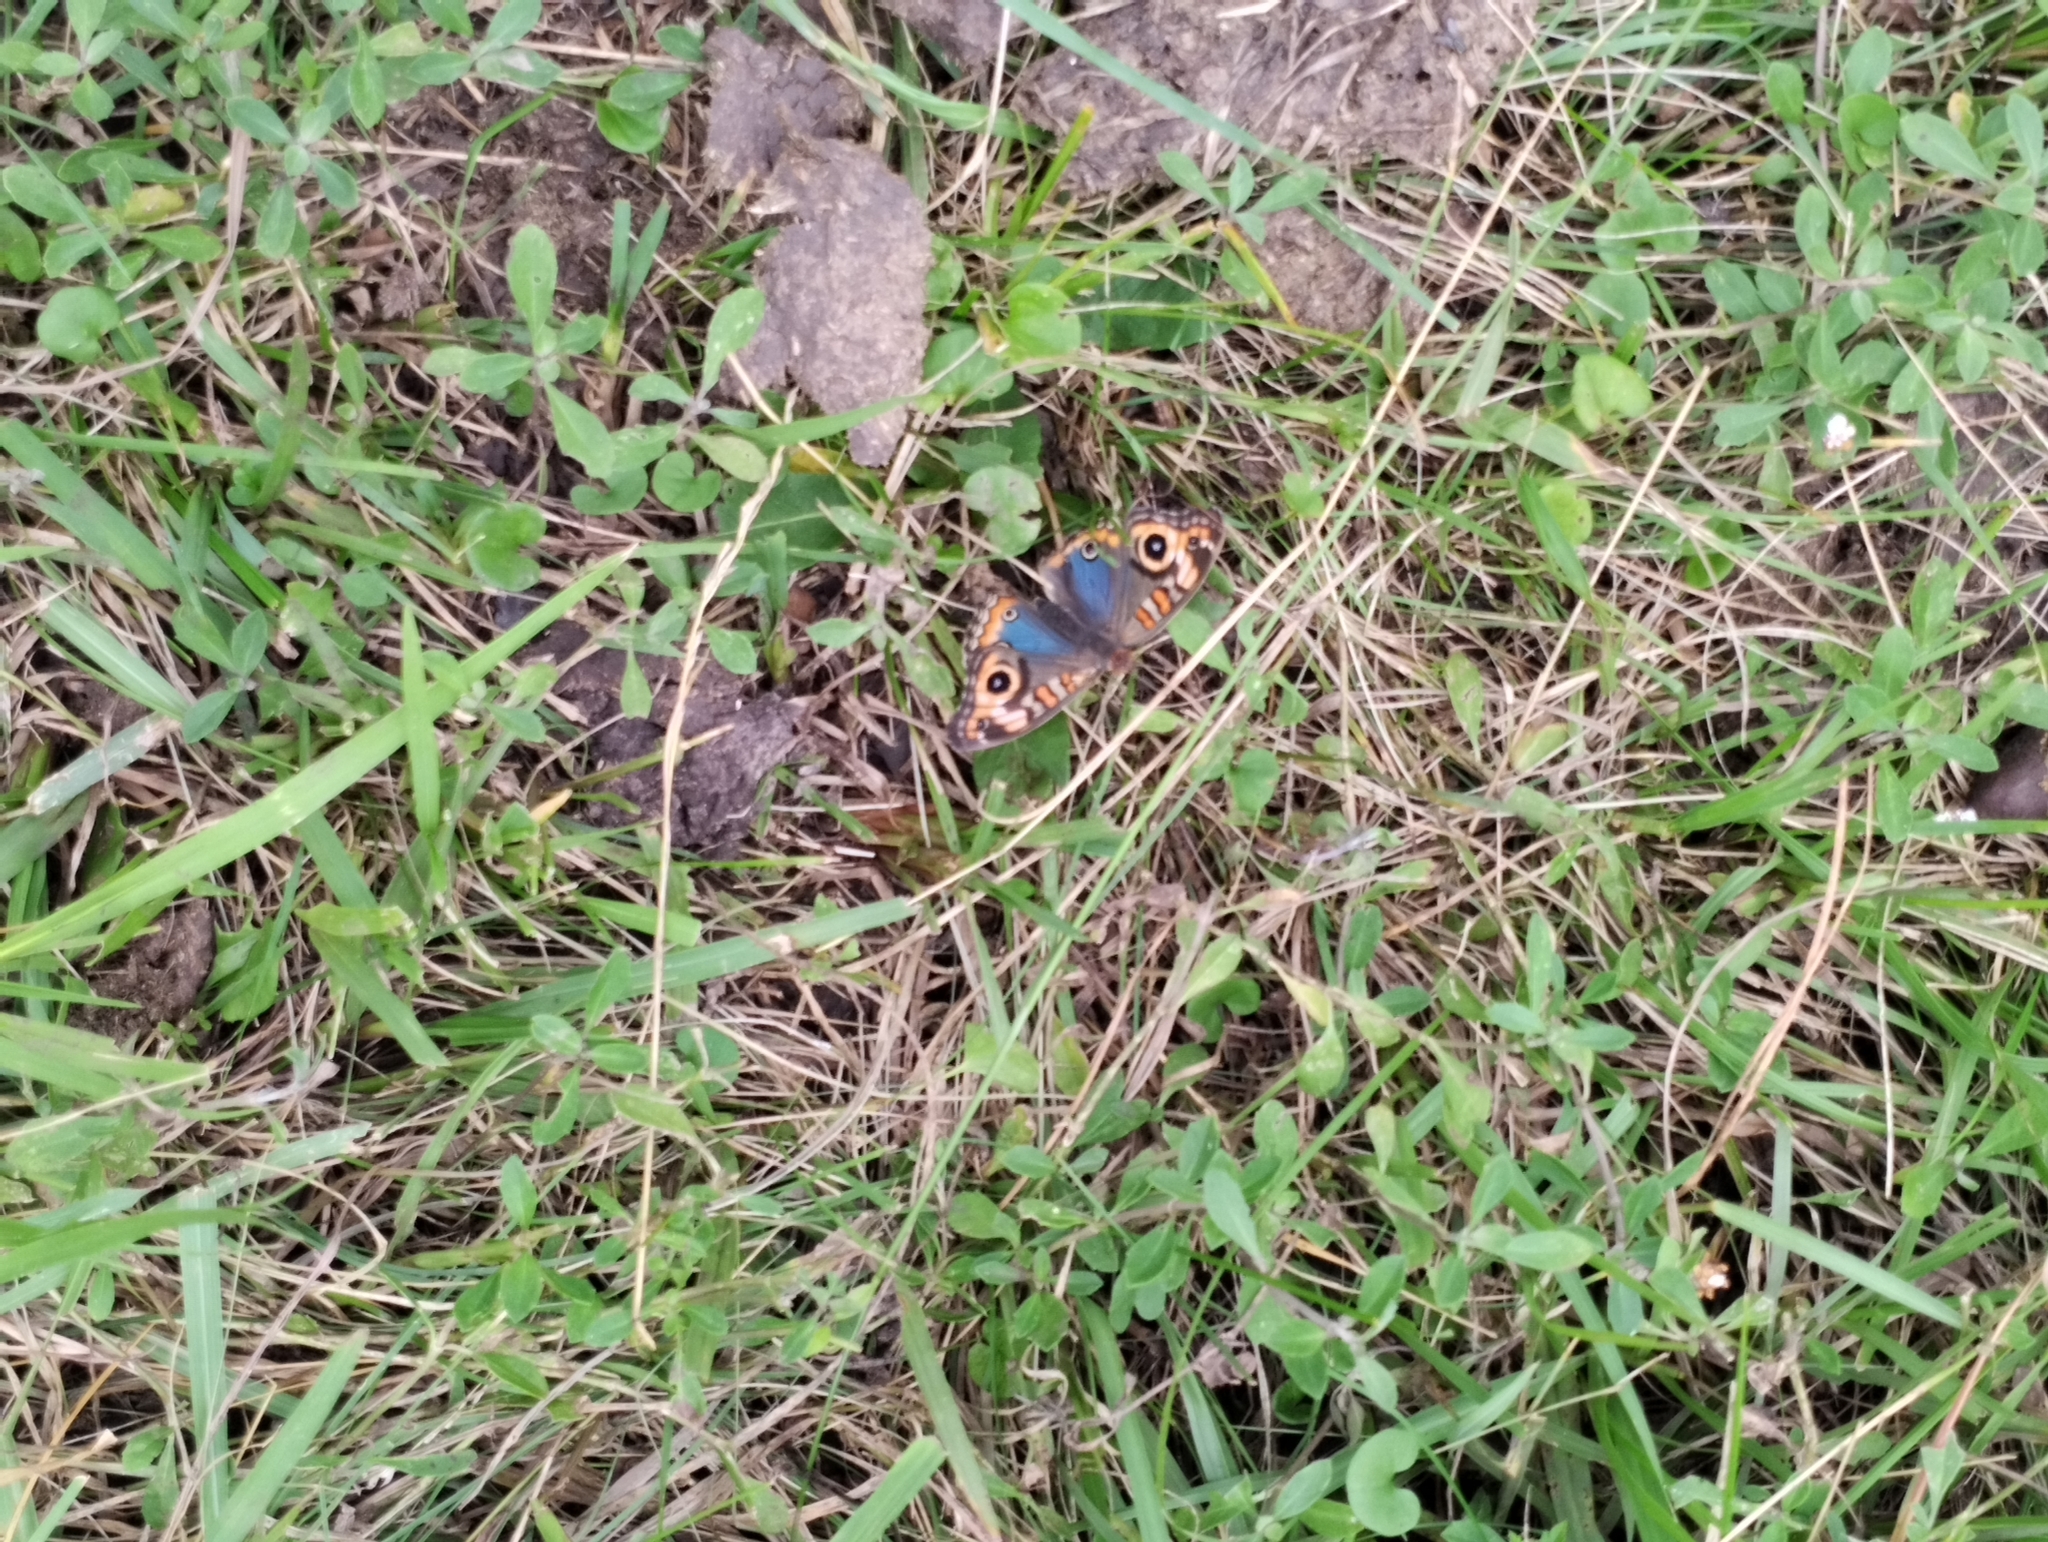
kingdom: Animalia
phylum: Arthropoda
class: Insecta
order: Lepidoptera
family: Nymphalidae
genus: Junonia
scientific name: Junonia lavinia
